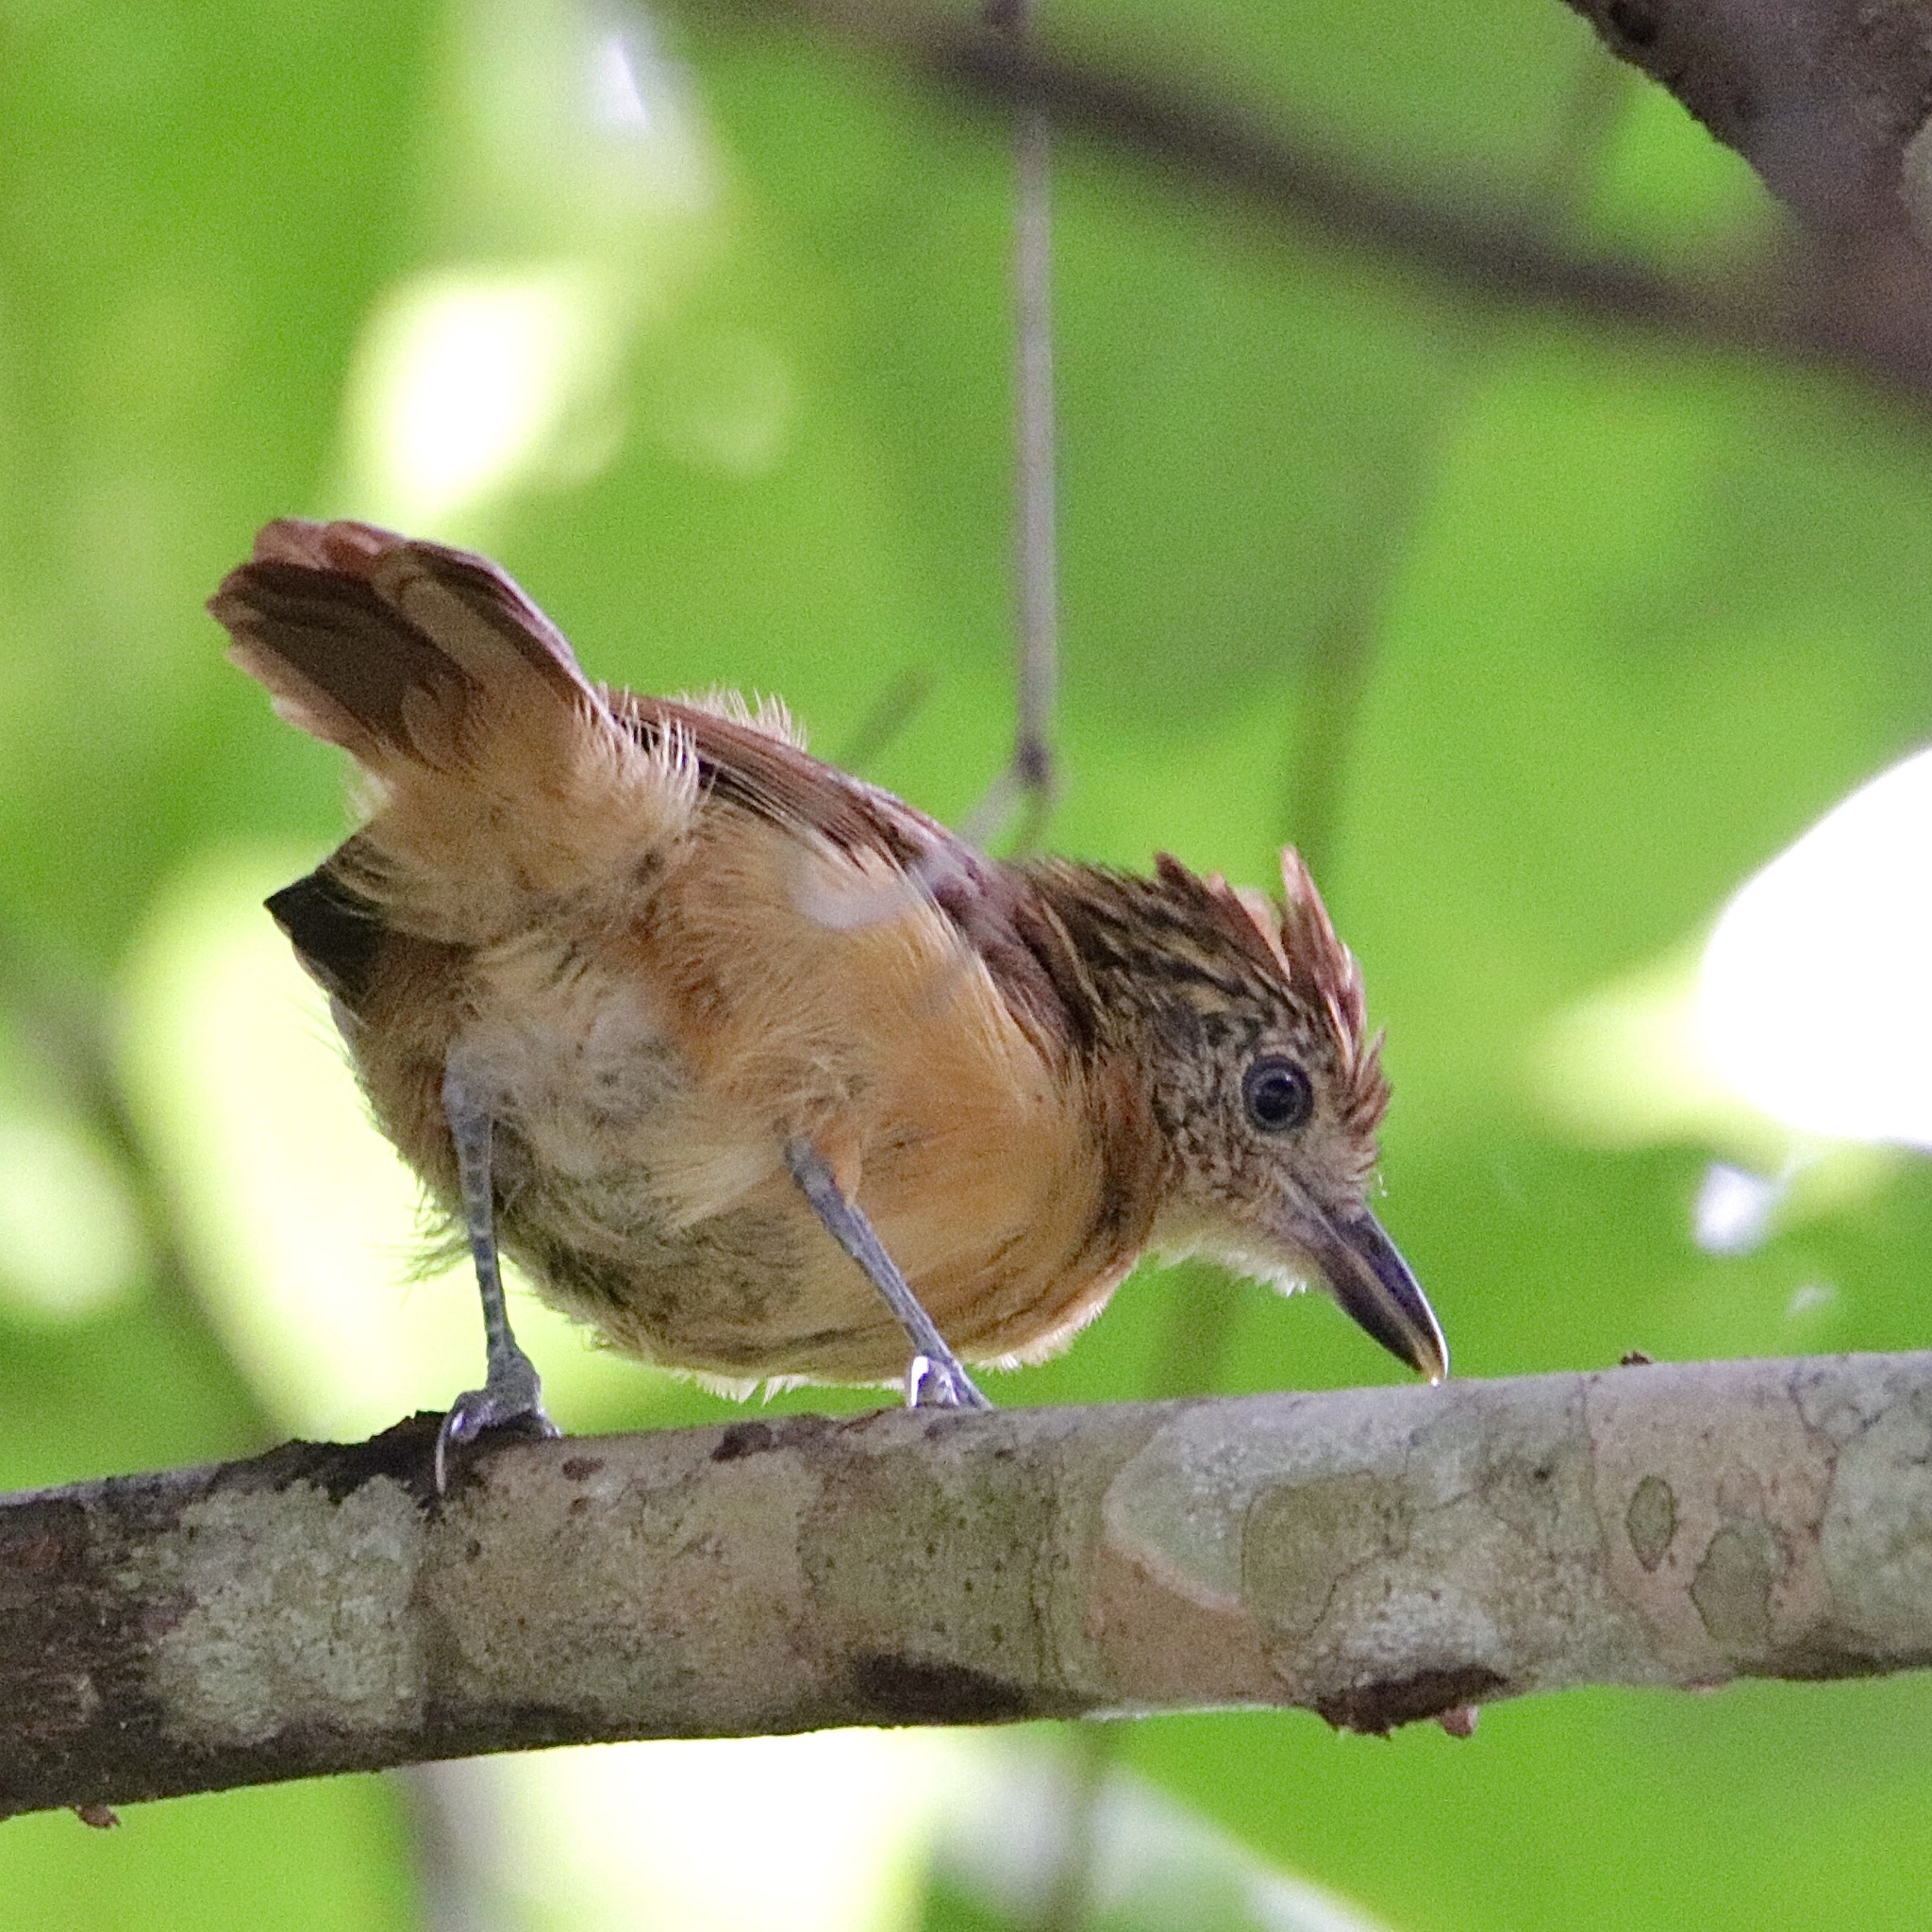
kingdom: Animalia
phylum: Chordata
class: Aves
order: Passeriformes
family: Thamnophilidae
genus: Thamnophilus
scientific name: Thamnophilus doliatus
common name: Barred antshrike
